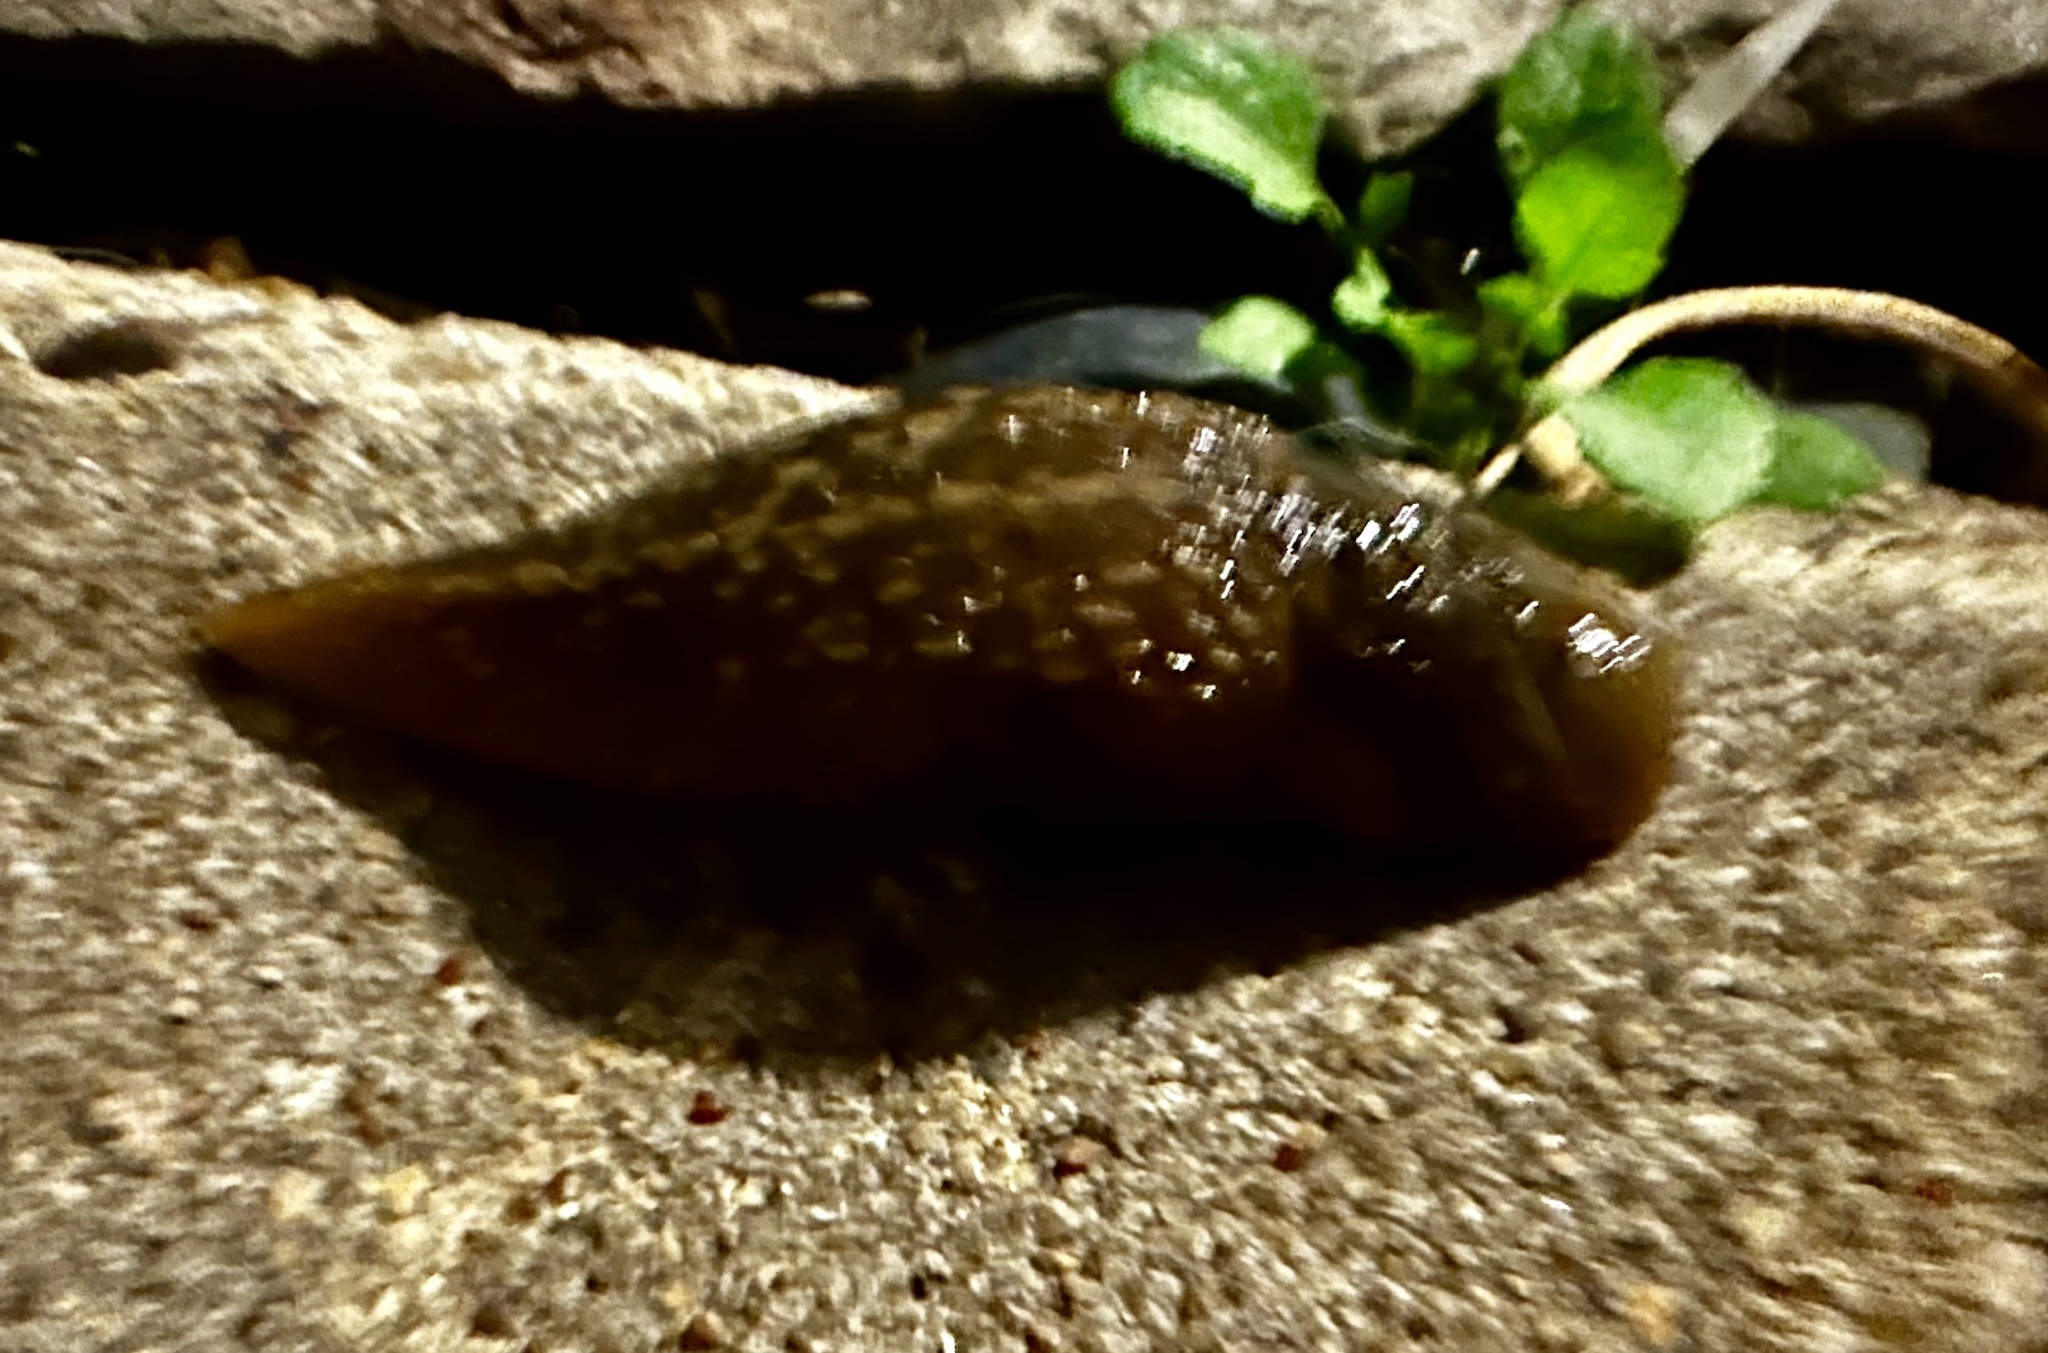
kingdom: Animalia
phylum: Mollusca
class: Gastropoda
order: Stylommatophora
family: Limacidae
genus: Limacus
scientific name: Limacus flavus
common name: Yellow gardenslug
